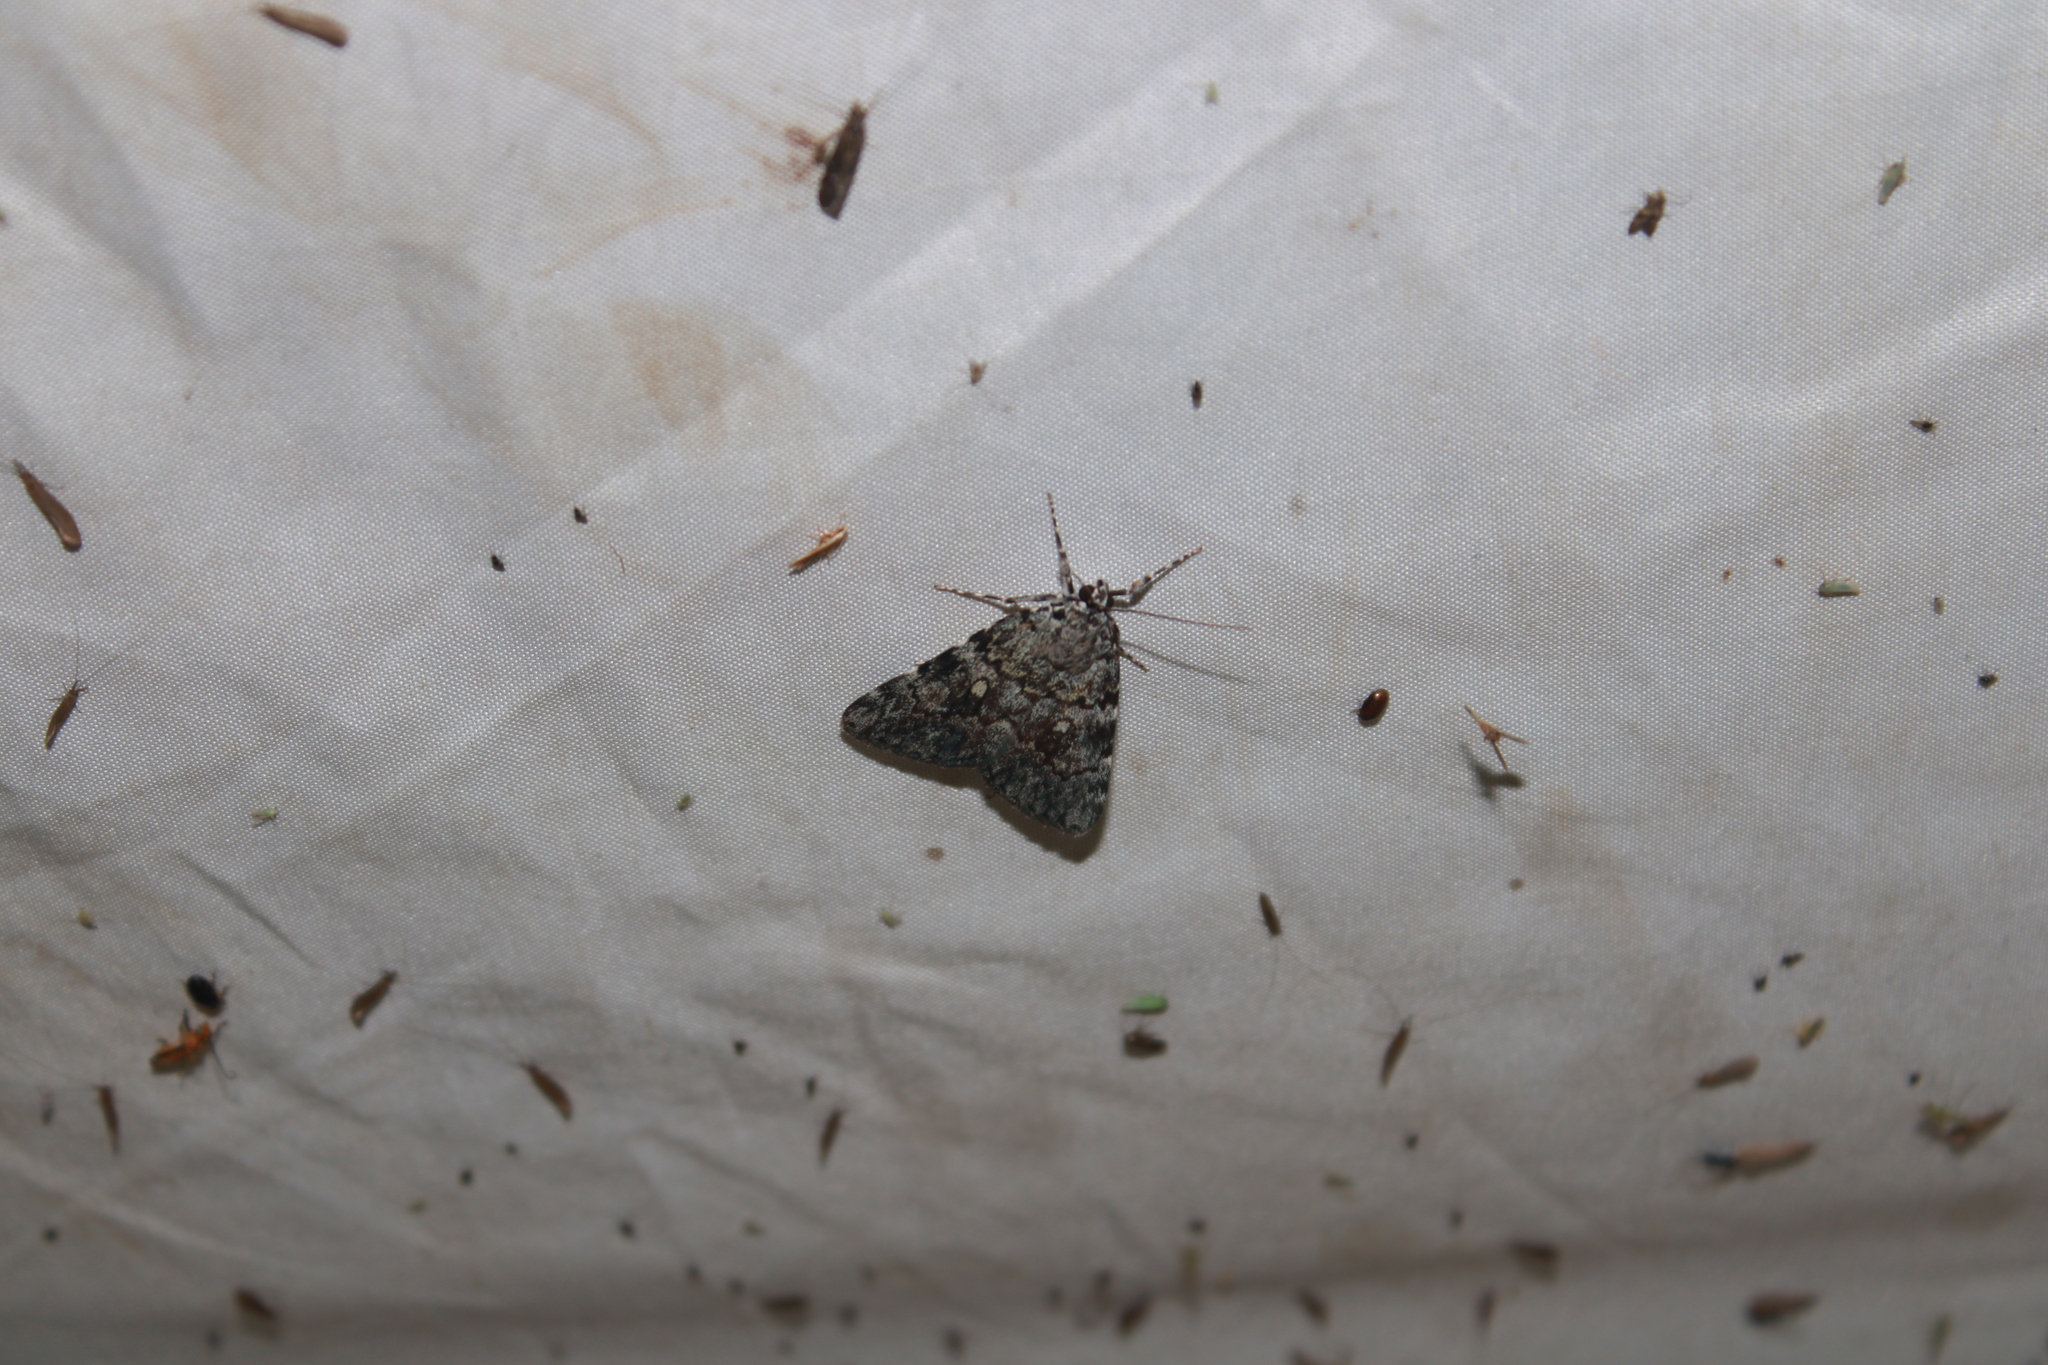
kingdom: Animalia
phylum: Arthropoda
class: Insecta
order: Lepidoptera
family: Erebidae
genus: Catocala
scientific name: Catocala lineella
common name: Little lined underwing
